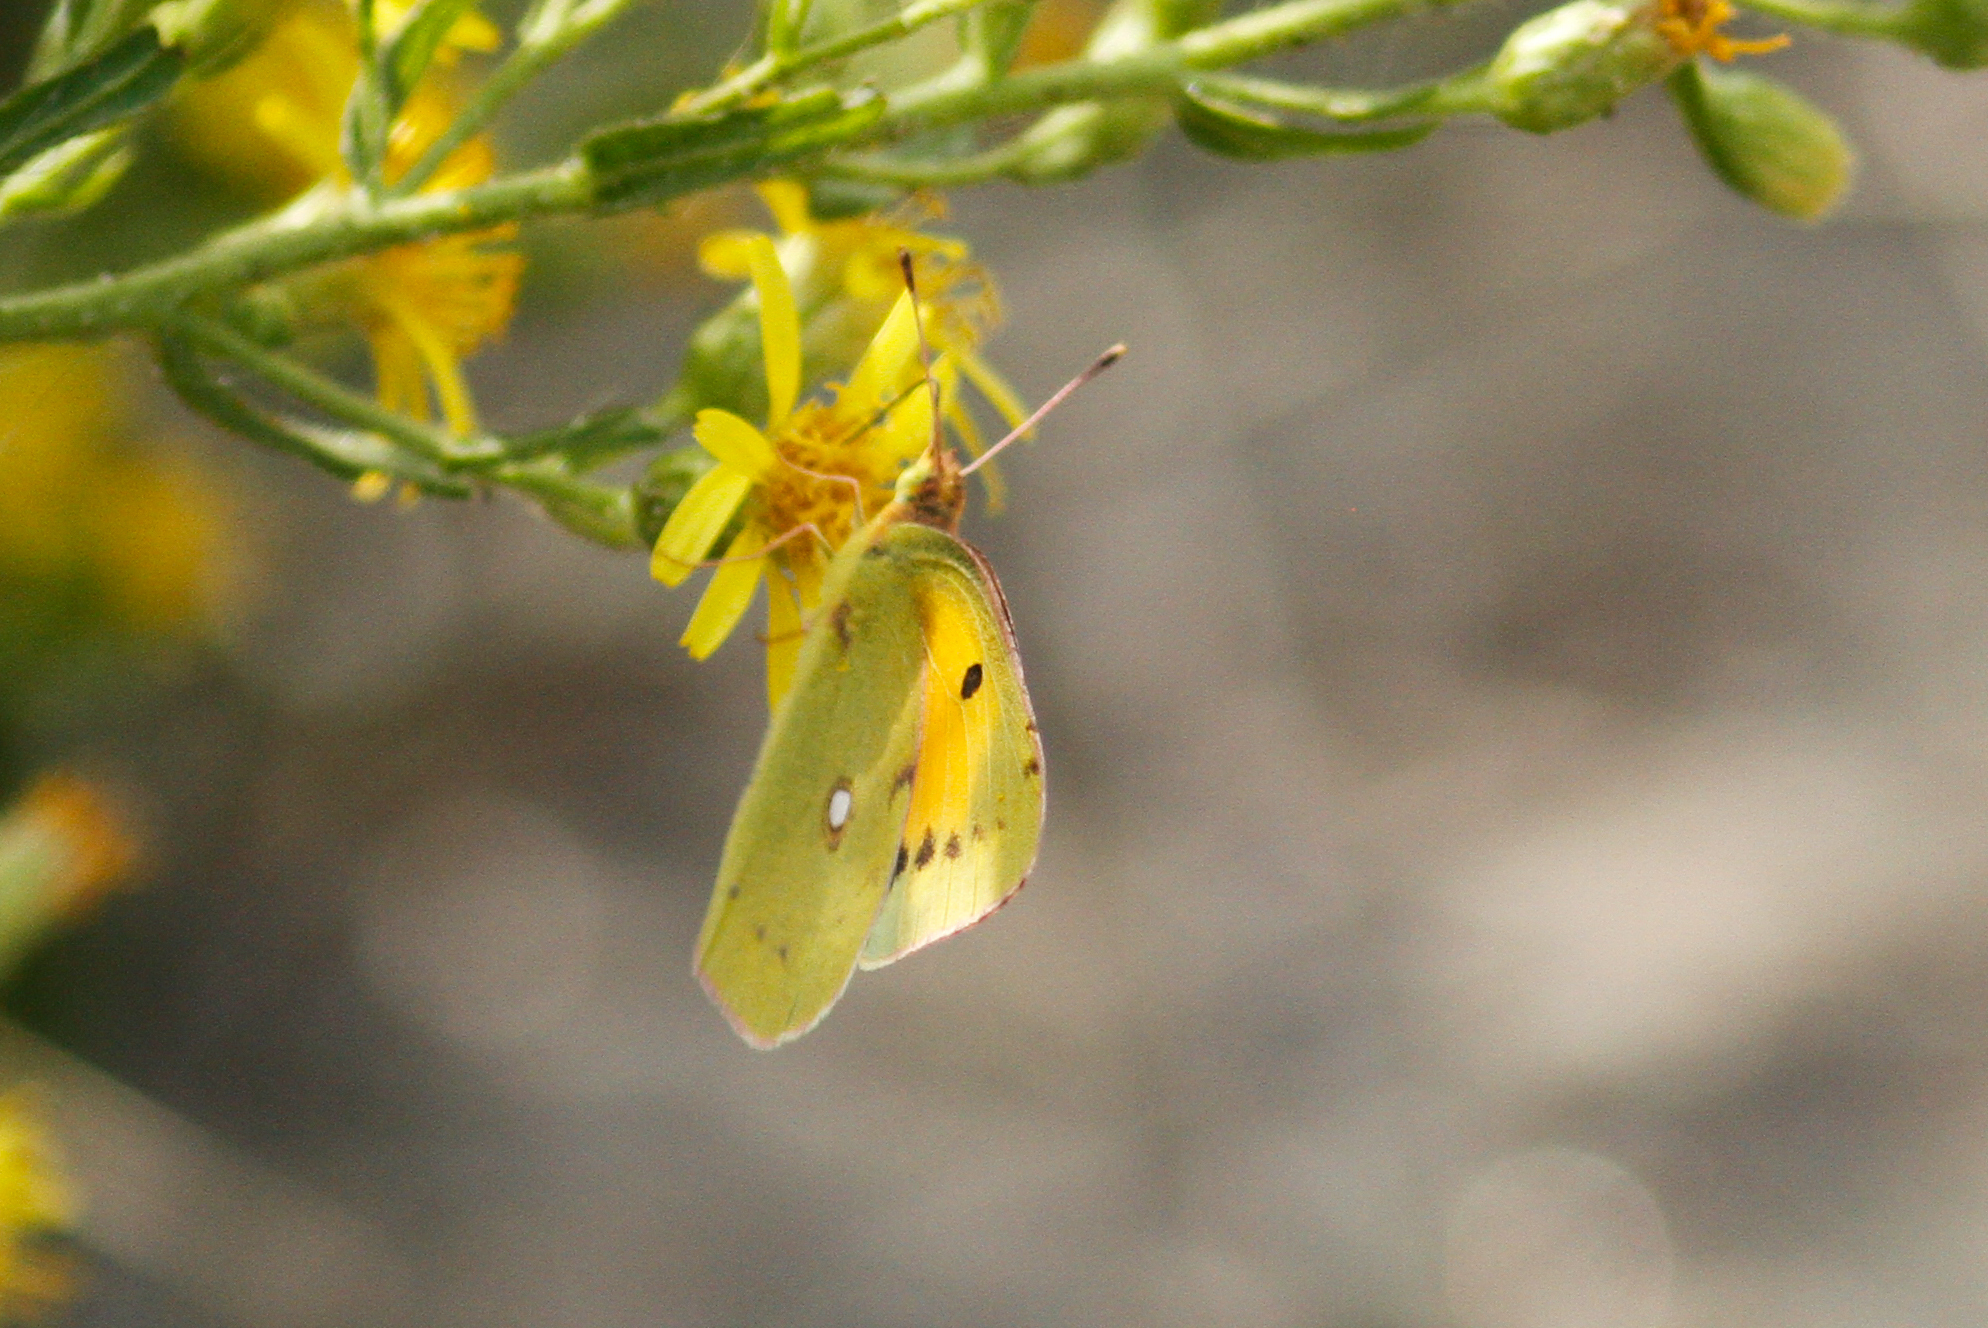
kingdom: Animalia
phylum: Arthropoda
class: Insecta
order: Lepidoptera
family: Pieridae
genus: Colias
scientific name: Colias croceus
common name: Clouded yellow
